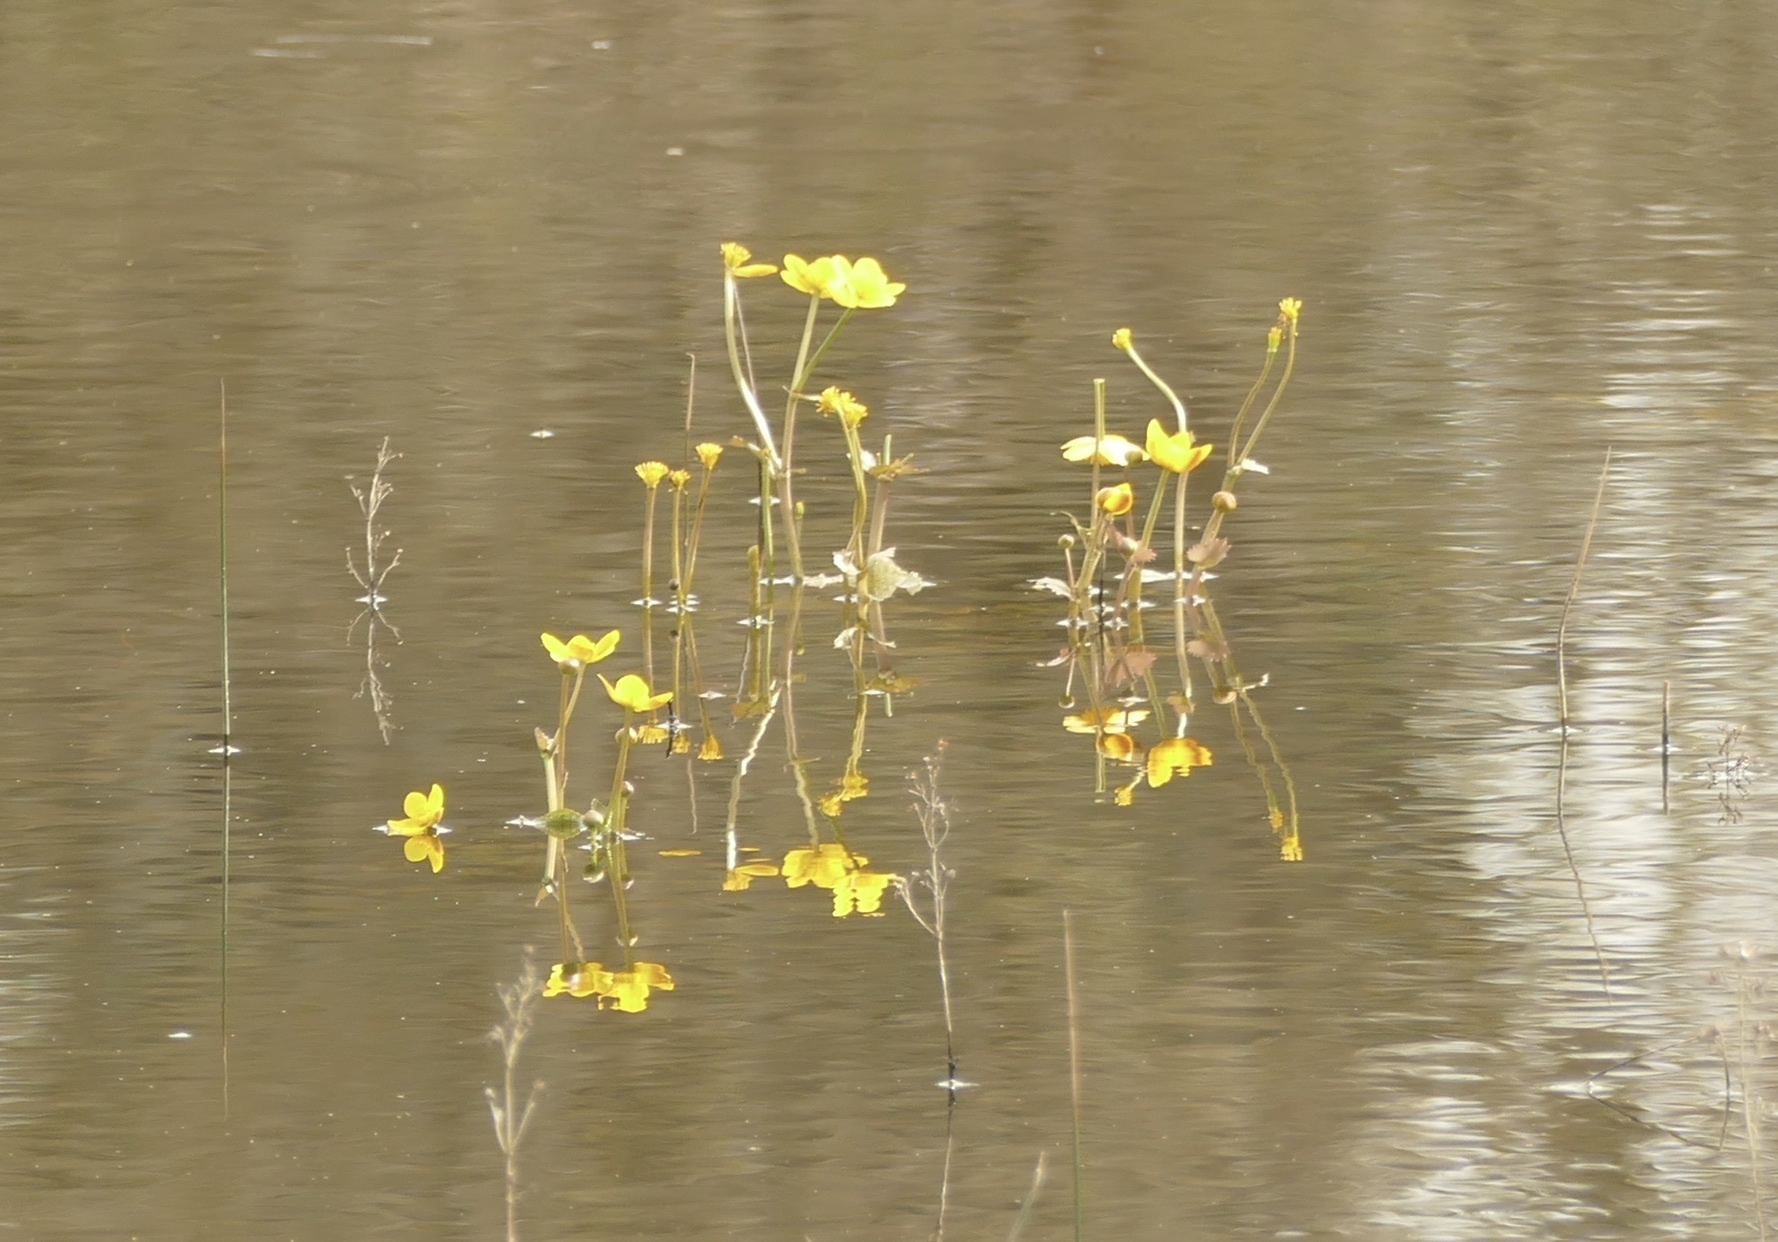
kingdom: Plantae
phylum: Tracheophyta
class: Magnoliopsida
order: Ranunculales
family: Ranunculaceae
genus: Caltha
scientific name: Caltha palustris
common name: Marsh marigold
